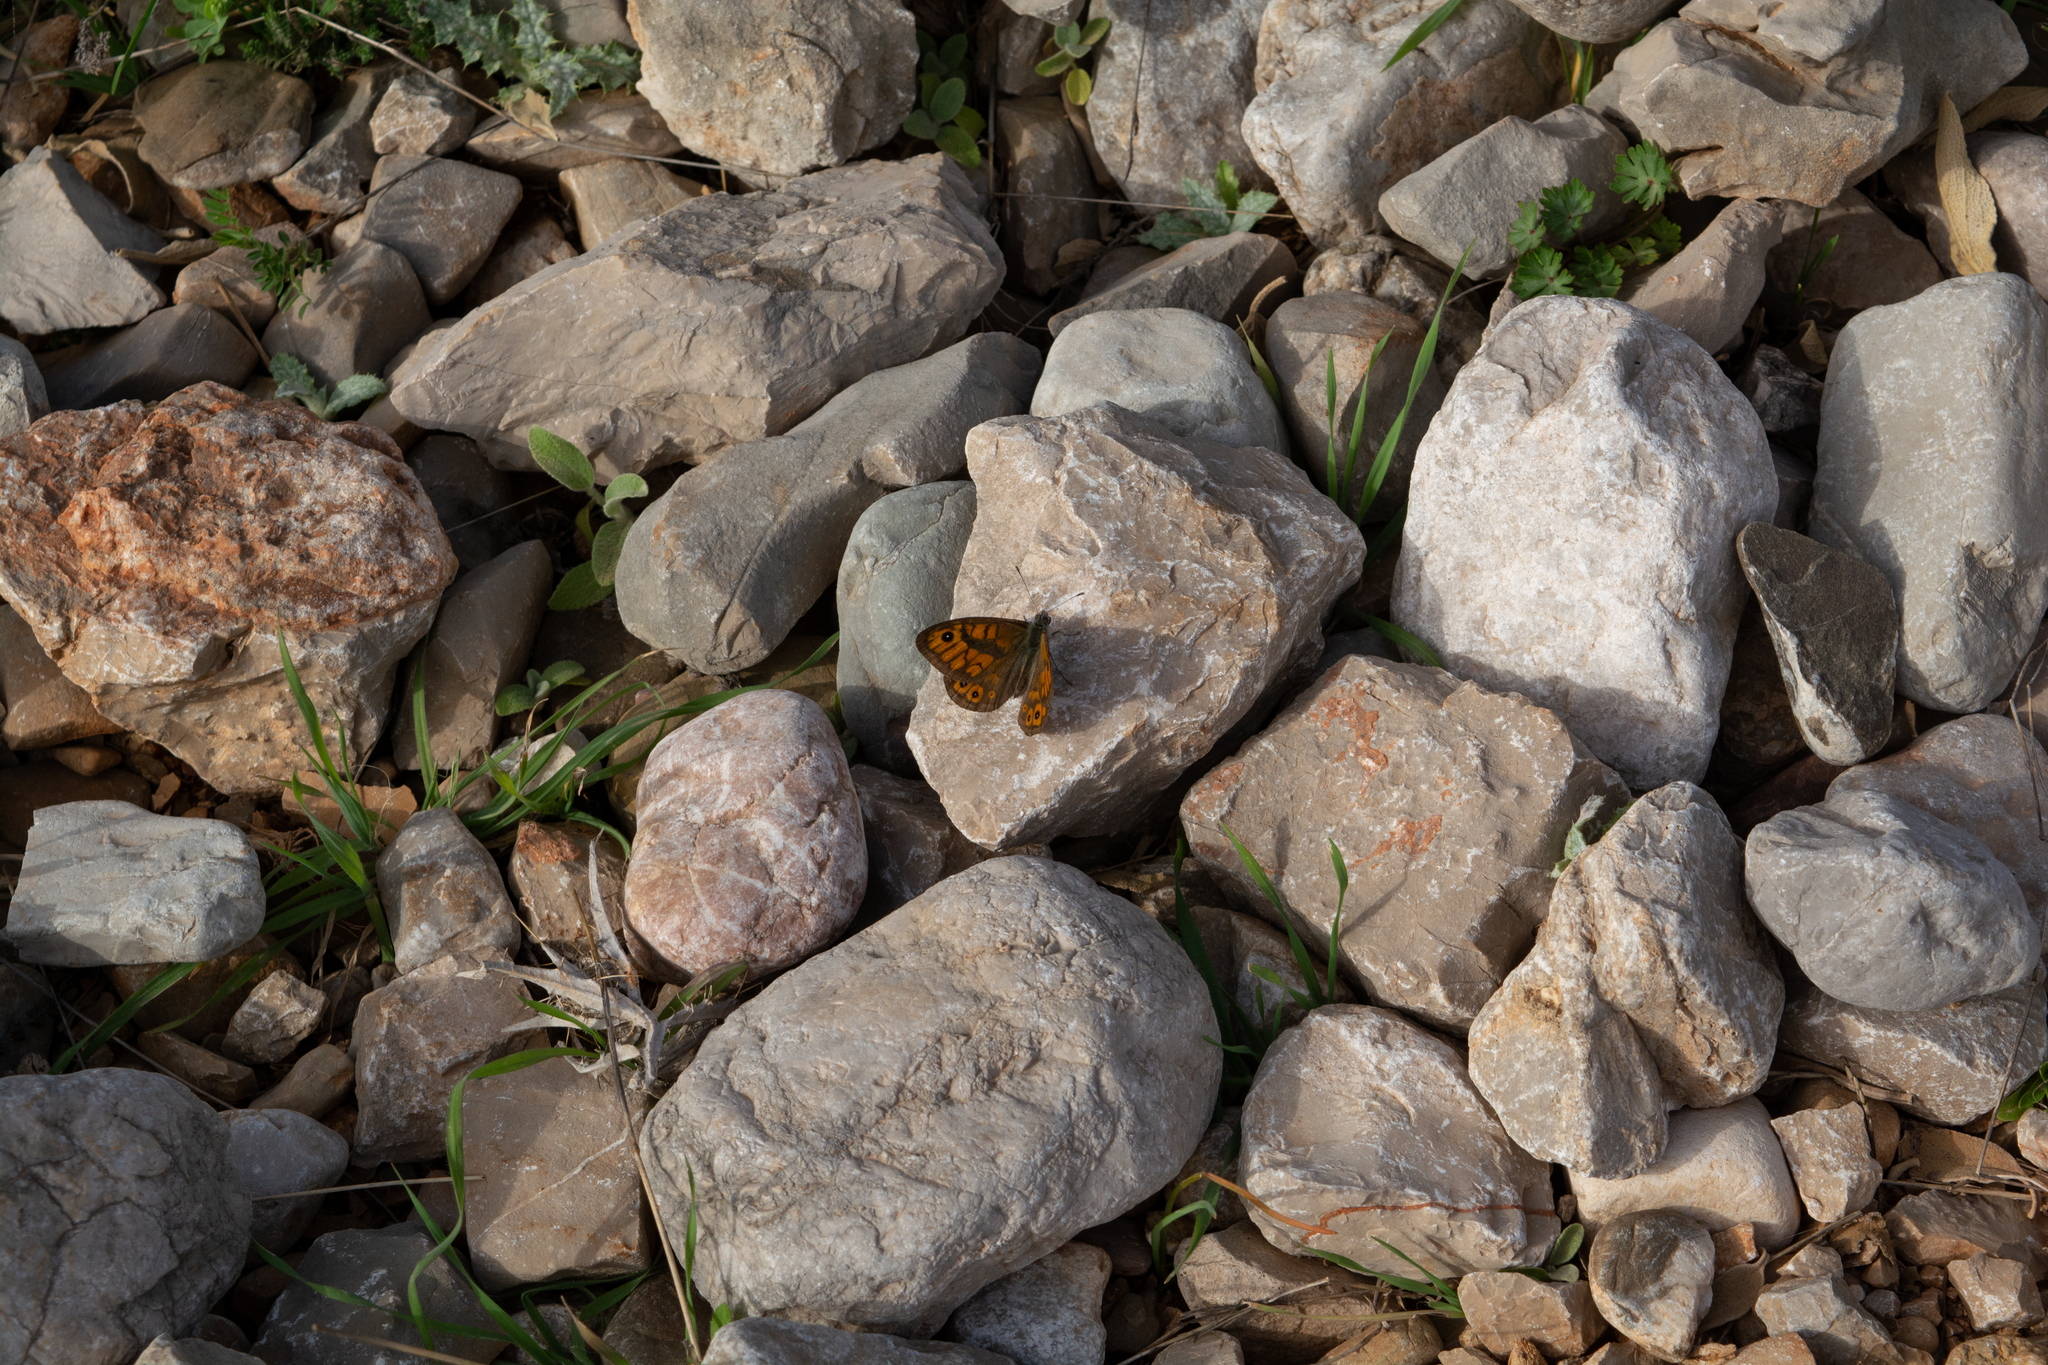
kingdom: Animalia
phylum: Arthropoda
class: Insecta
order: Lepidoptera
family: Nymphalidae
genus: Pararge
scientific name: Pararge Lasiommata megera
